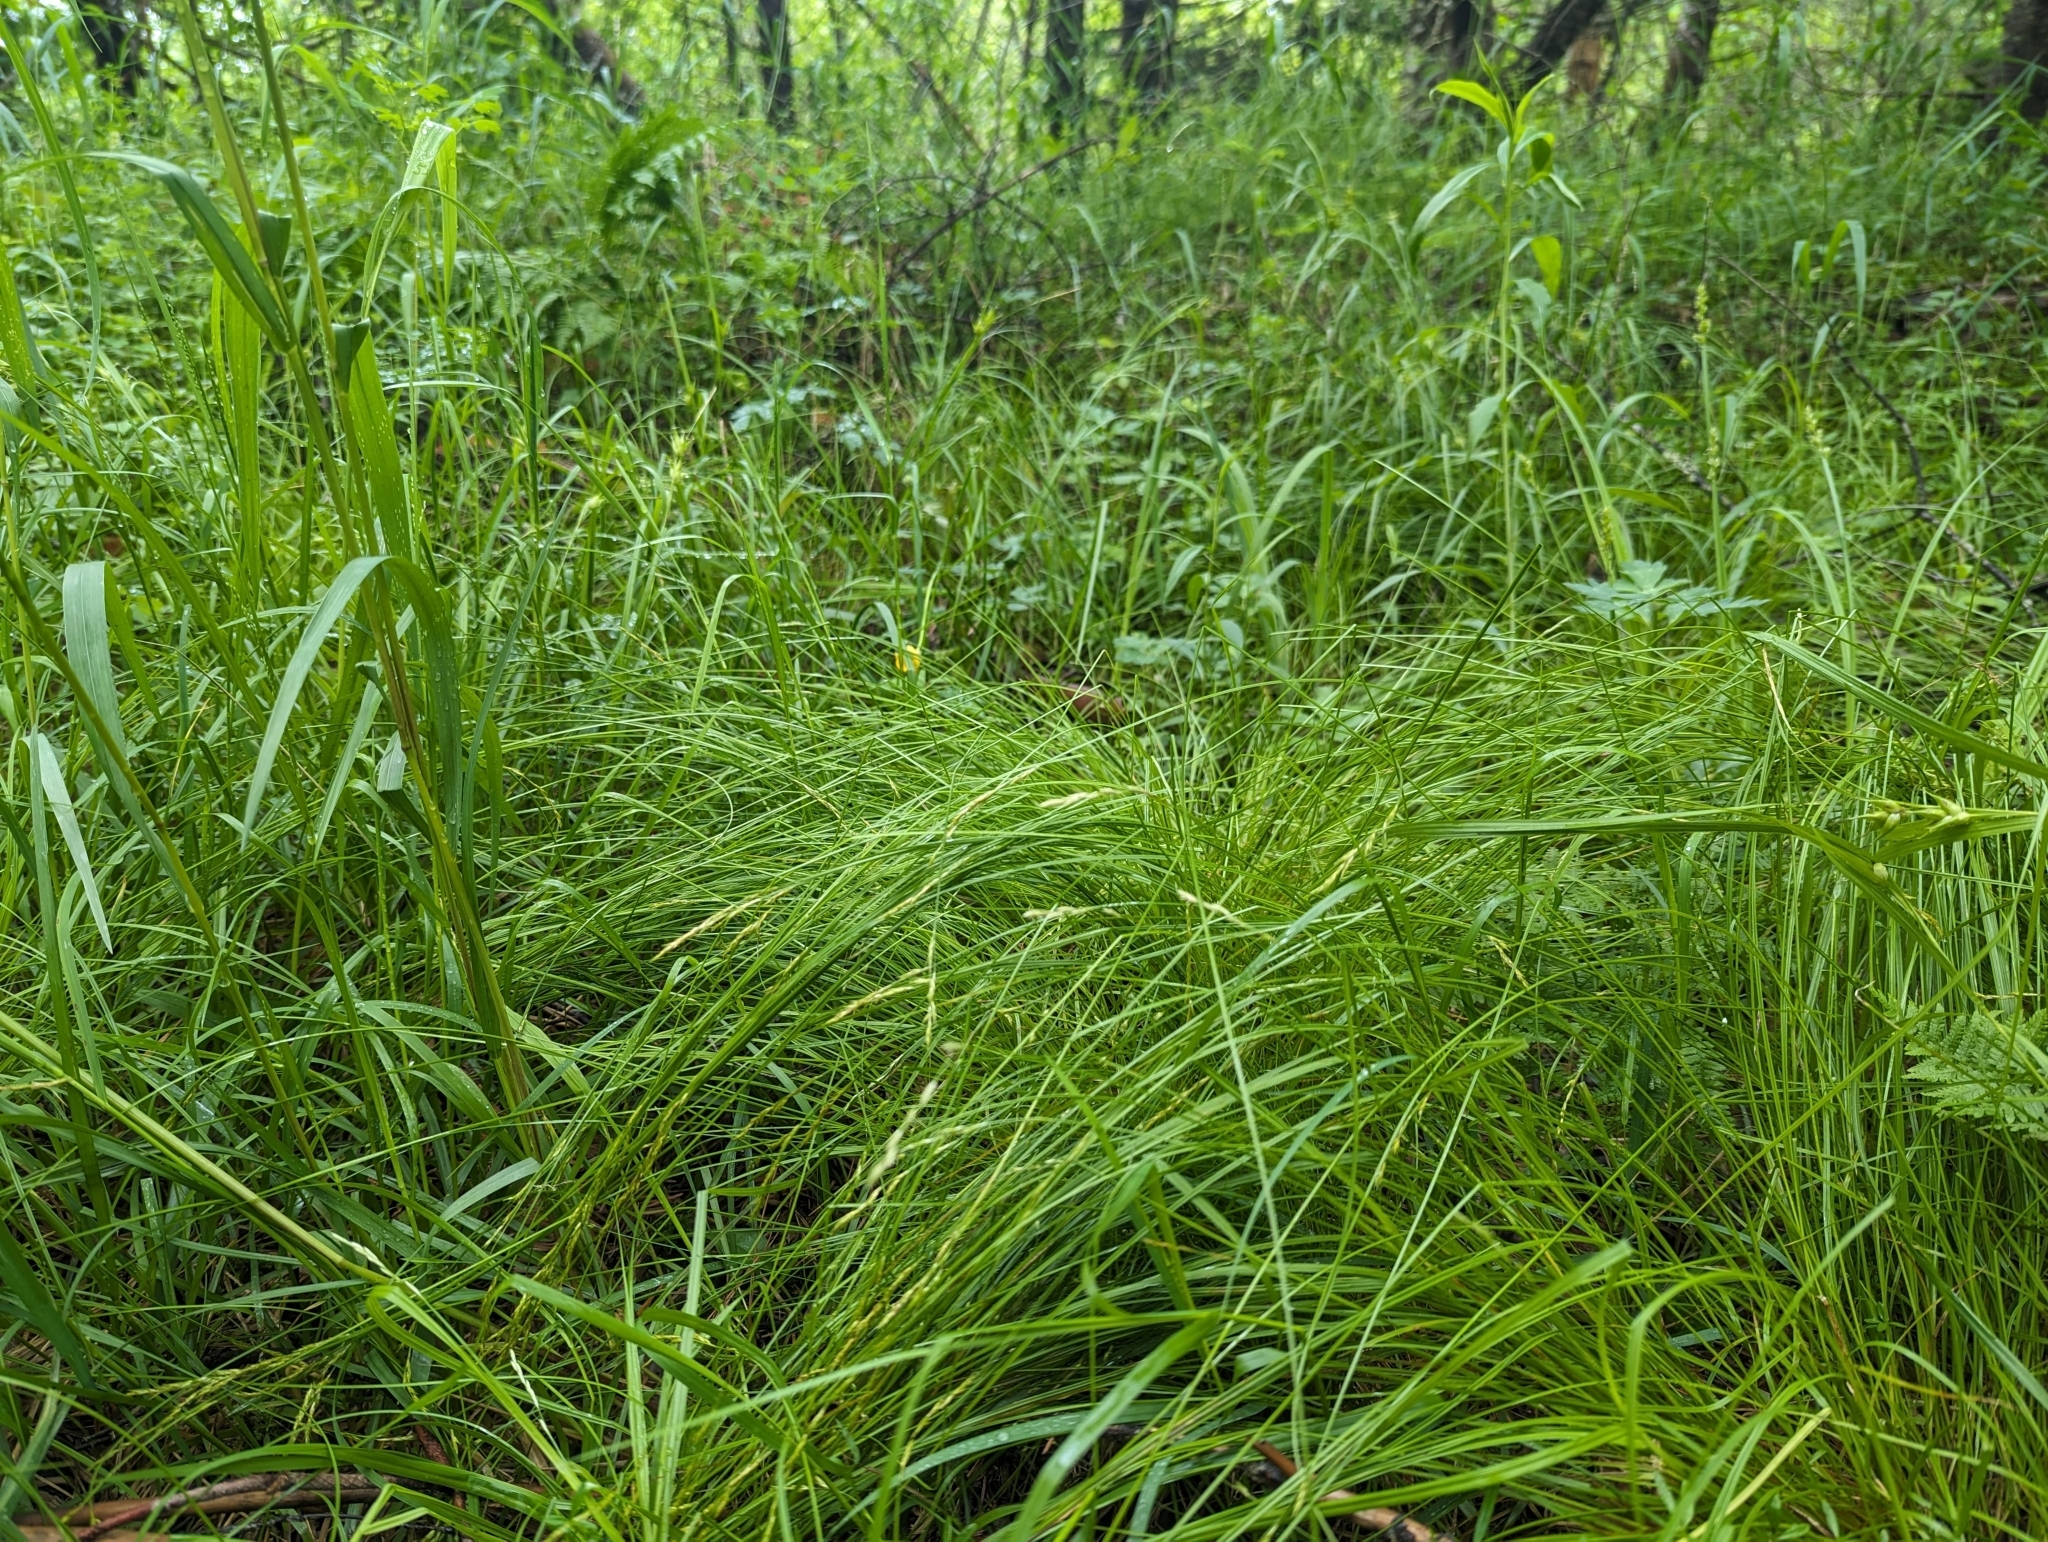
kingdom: Plantae
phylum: Tracheophyta
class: Liliopsida
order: Poales
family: Cyperaceae
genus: Carex
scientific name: Carex bromoides
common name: Brome hummock sedge
